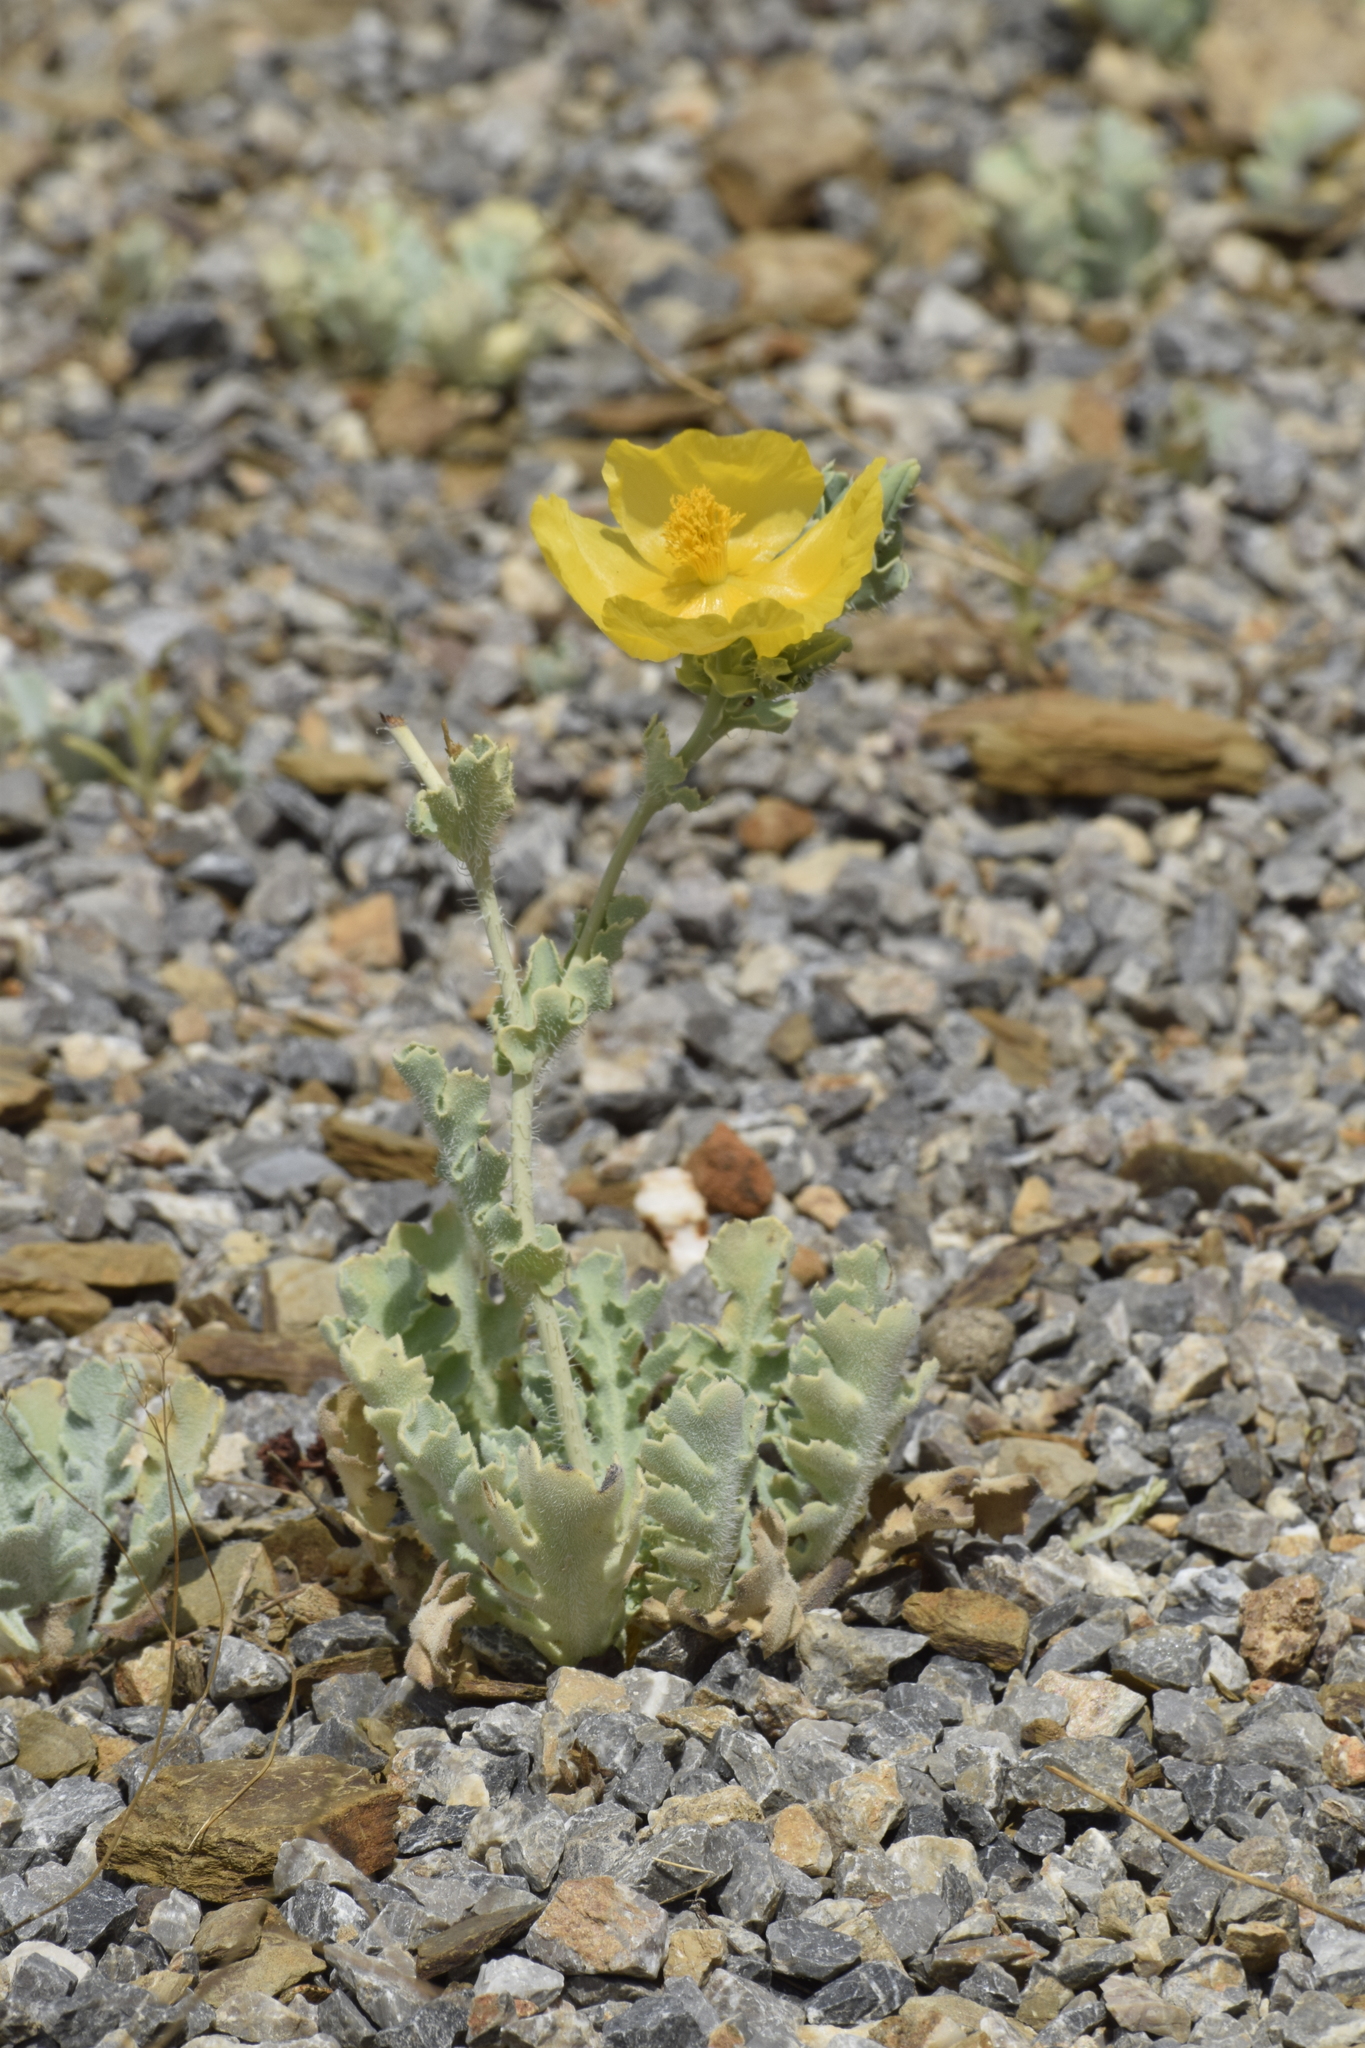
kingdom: Plantae
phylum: Tracheophyta
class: Magnoliopsida
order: Ranunculales
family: Papaveraceae
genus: Glaucium
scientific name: Glaucium flavum
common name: Yellow horned-poppy
